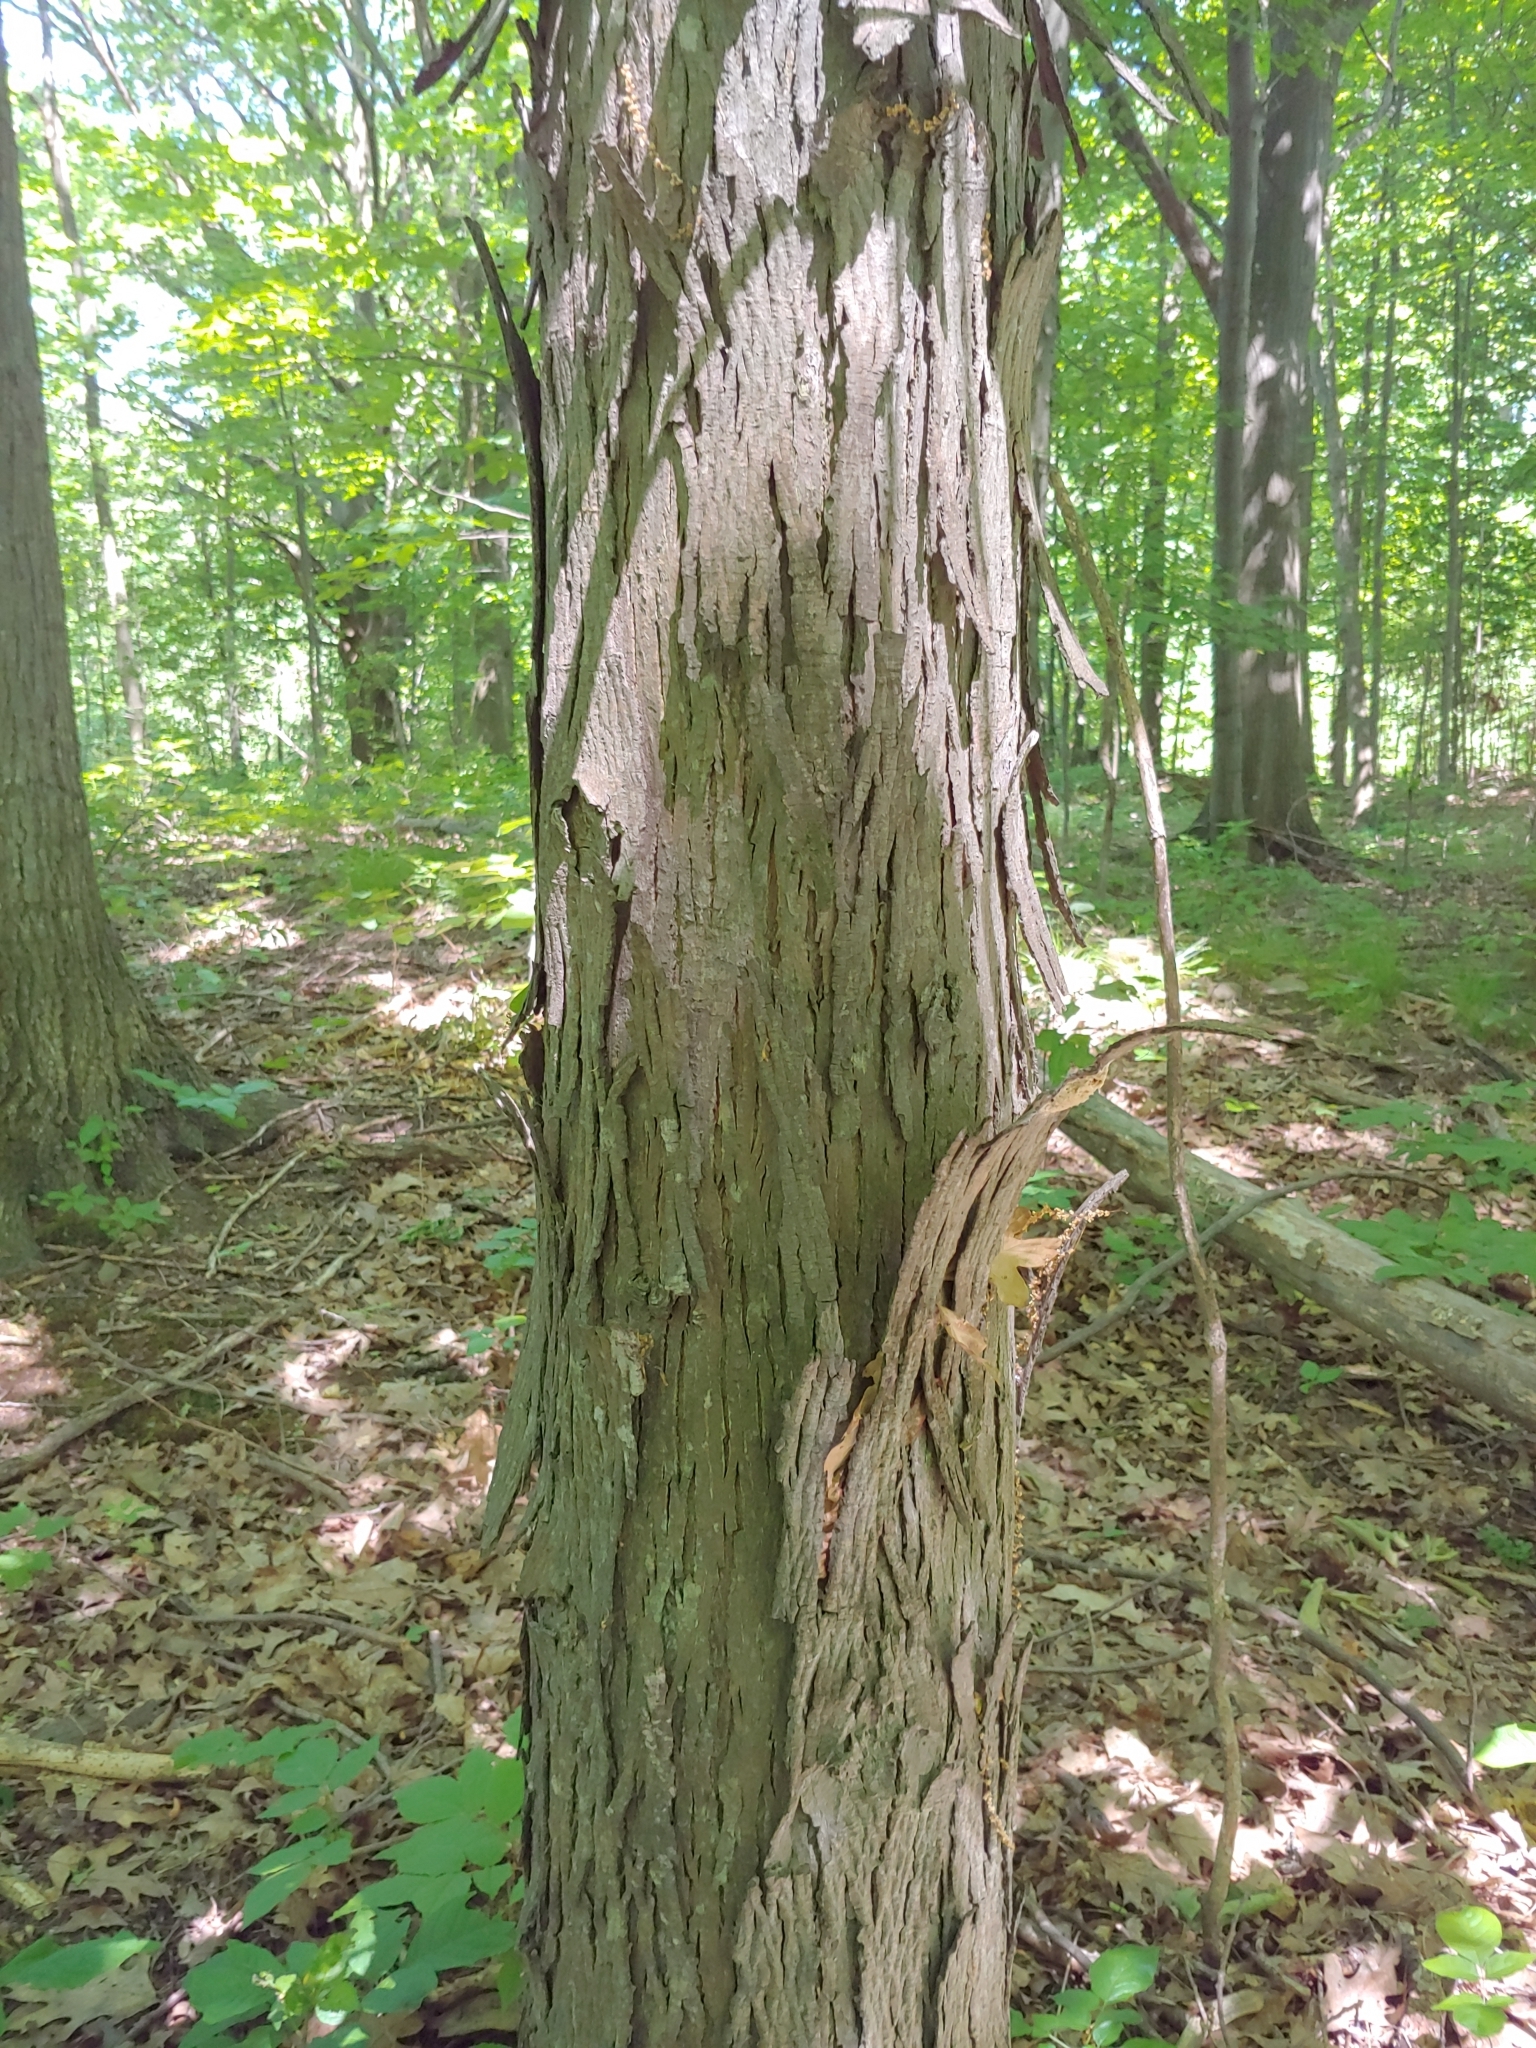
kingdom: Plantae
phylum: Tracheophyta
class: Magnoliopsida
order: Fagales
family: Juglandaceae
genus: Carya
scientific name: Carya ovata
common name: Shagbark hickory
